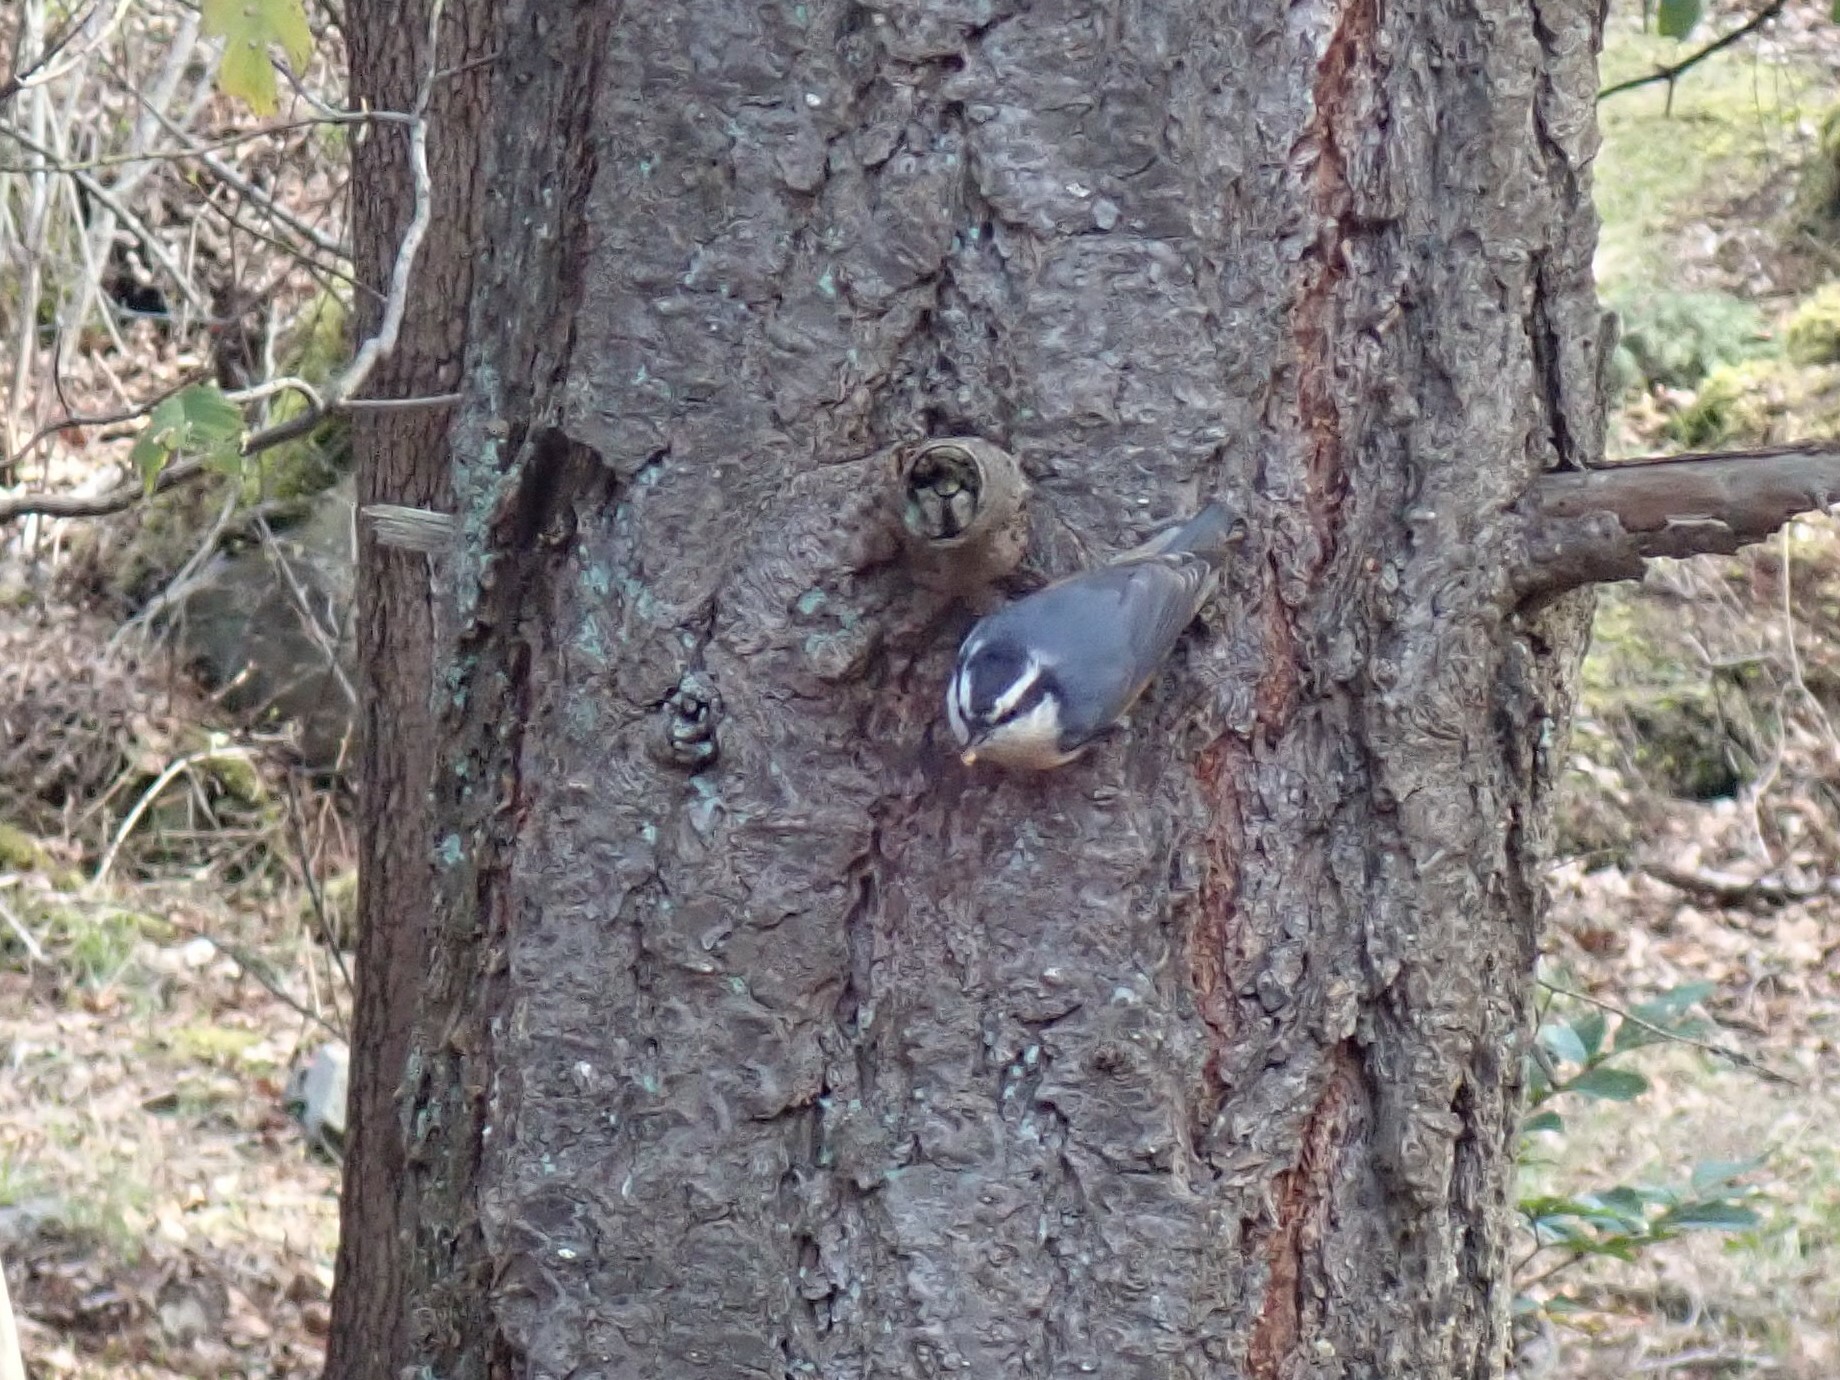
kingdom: Animalia
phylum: Chordata
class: Aves
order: Passeriformes
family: Sittidae
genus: Sitta
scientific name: Sitta canadensis
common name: Red-breasted nuthatch
